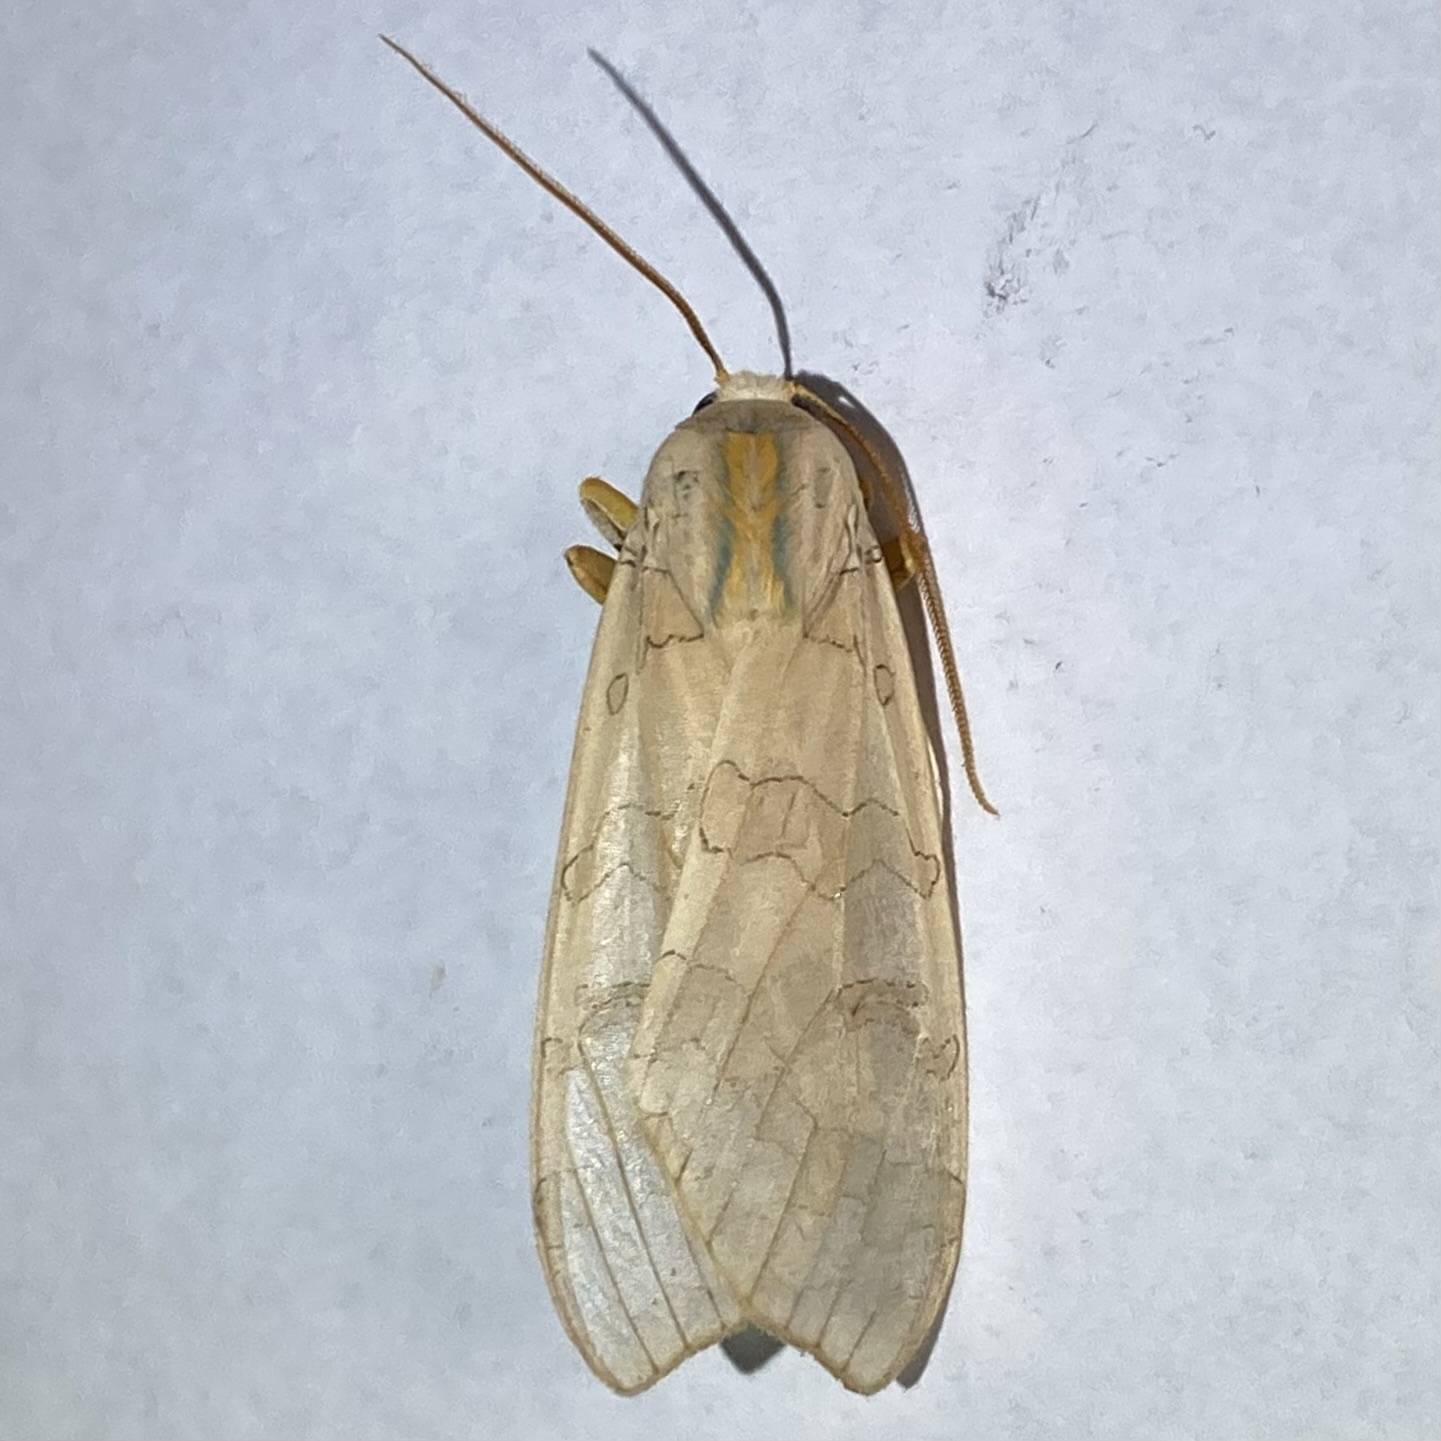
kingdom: Animalia
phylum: Arthropoda
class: Insecta
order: Lepidoptera
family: Erebidae
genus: Halysidota
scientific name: Halysidota tessellaris
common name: Banded tussock moth
